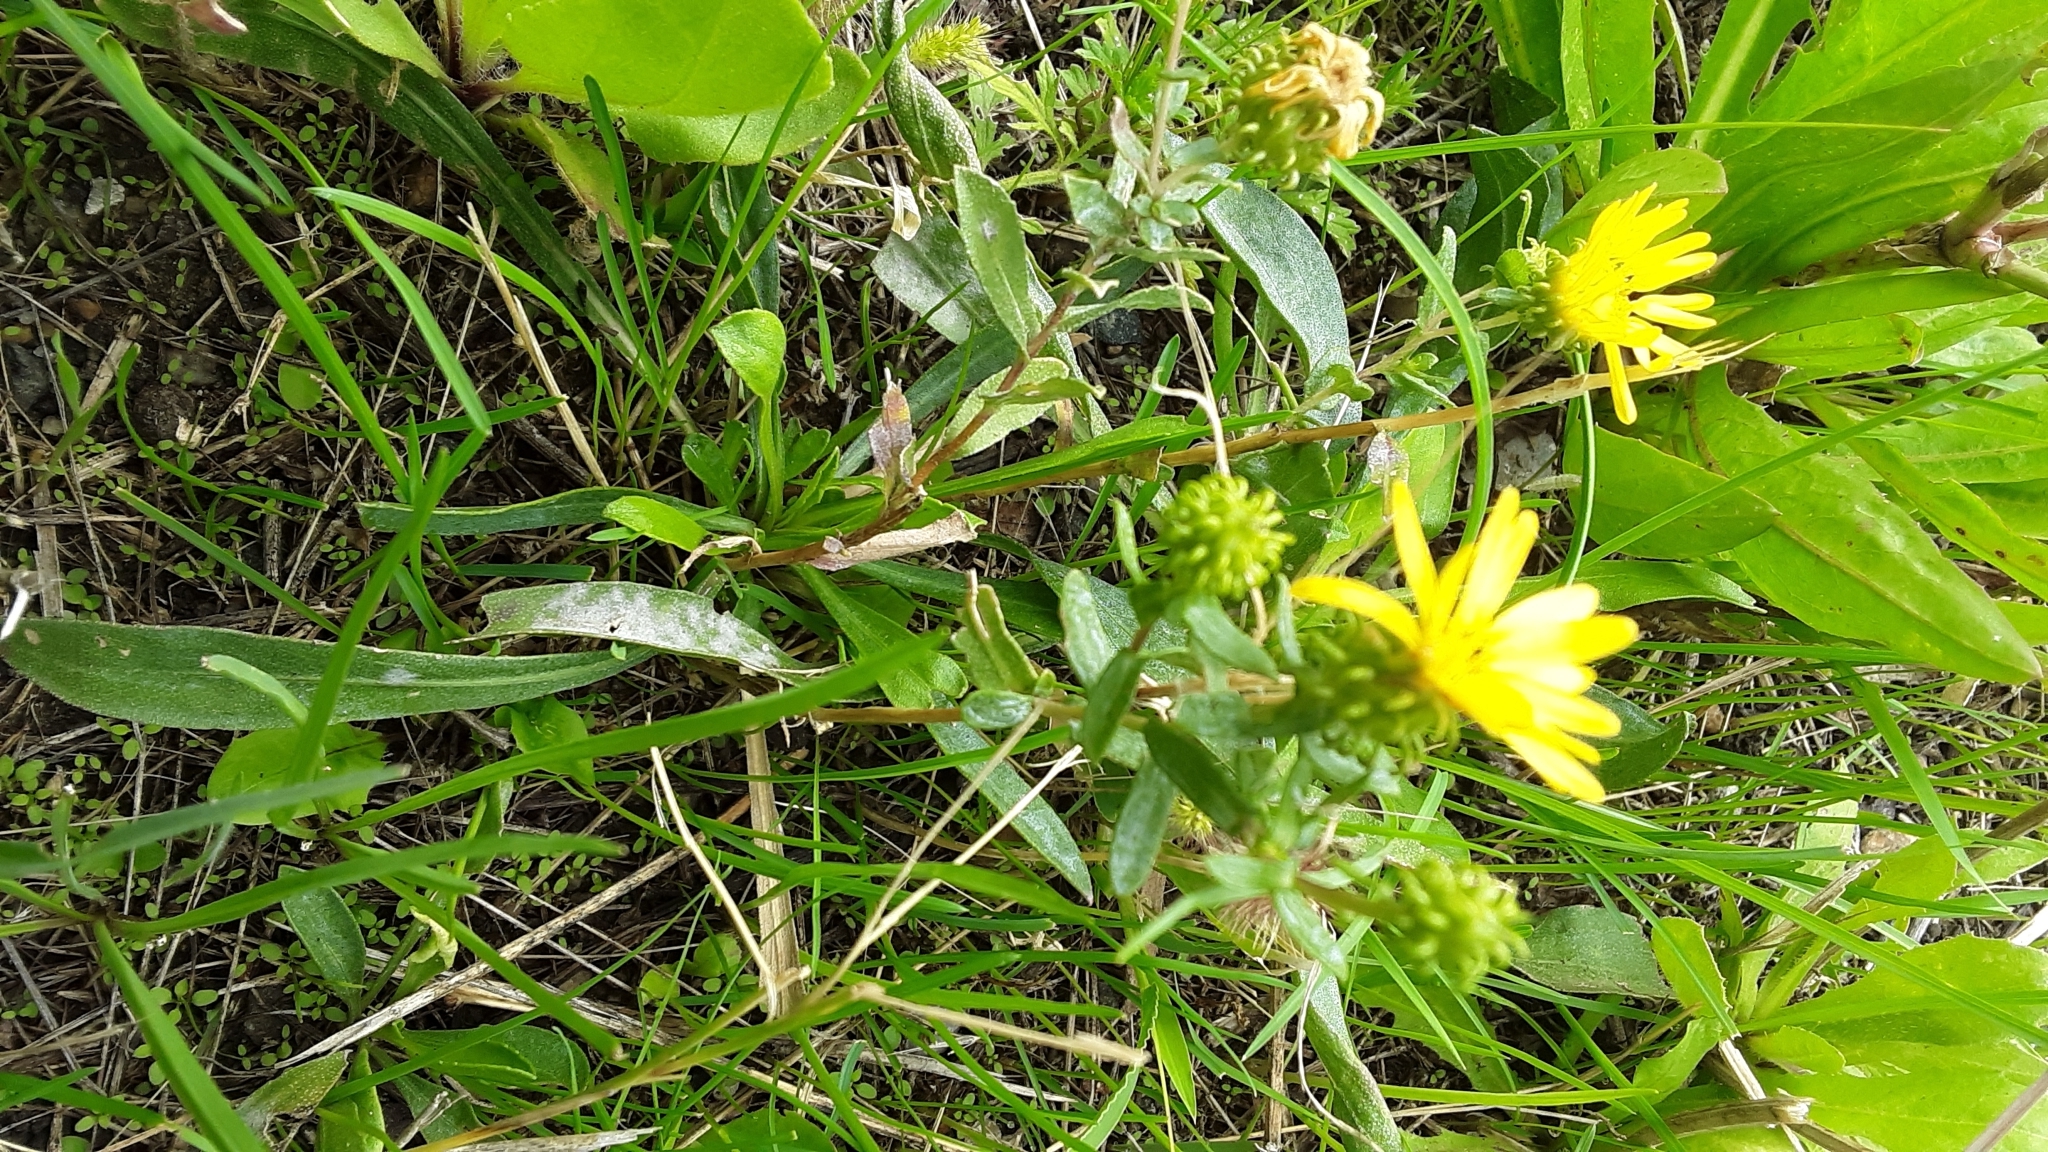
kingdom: Plantae
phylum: Tracheophyta
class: Magnoliopsida
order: Asterales
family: Asteraceae
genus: Grindelia
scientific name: Grindelia squarrosa
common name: Curly-cup gumweed
